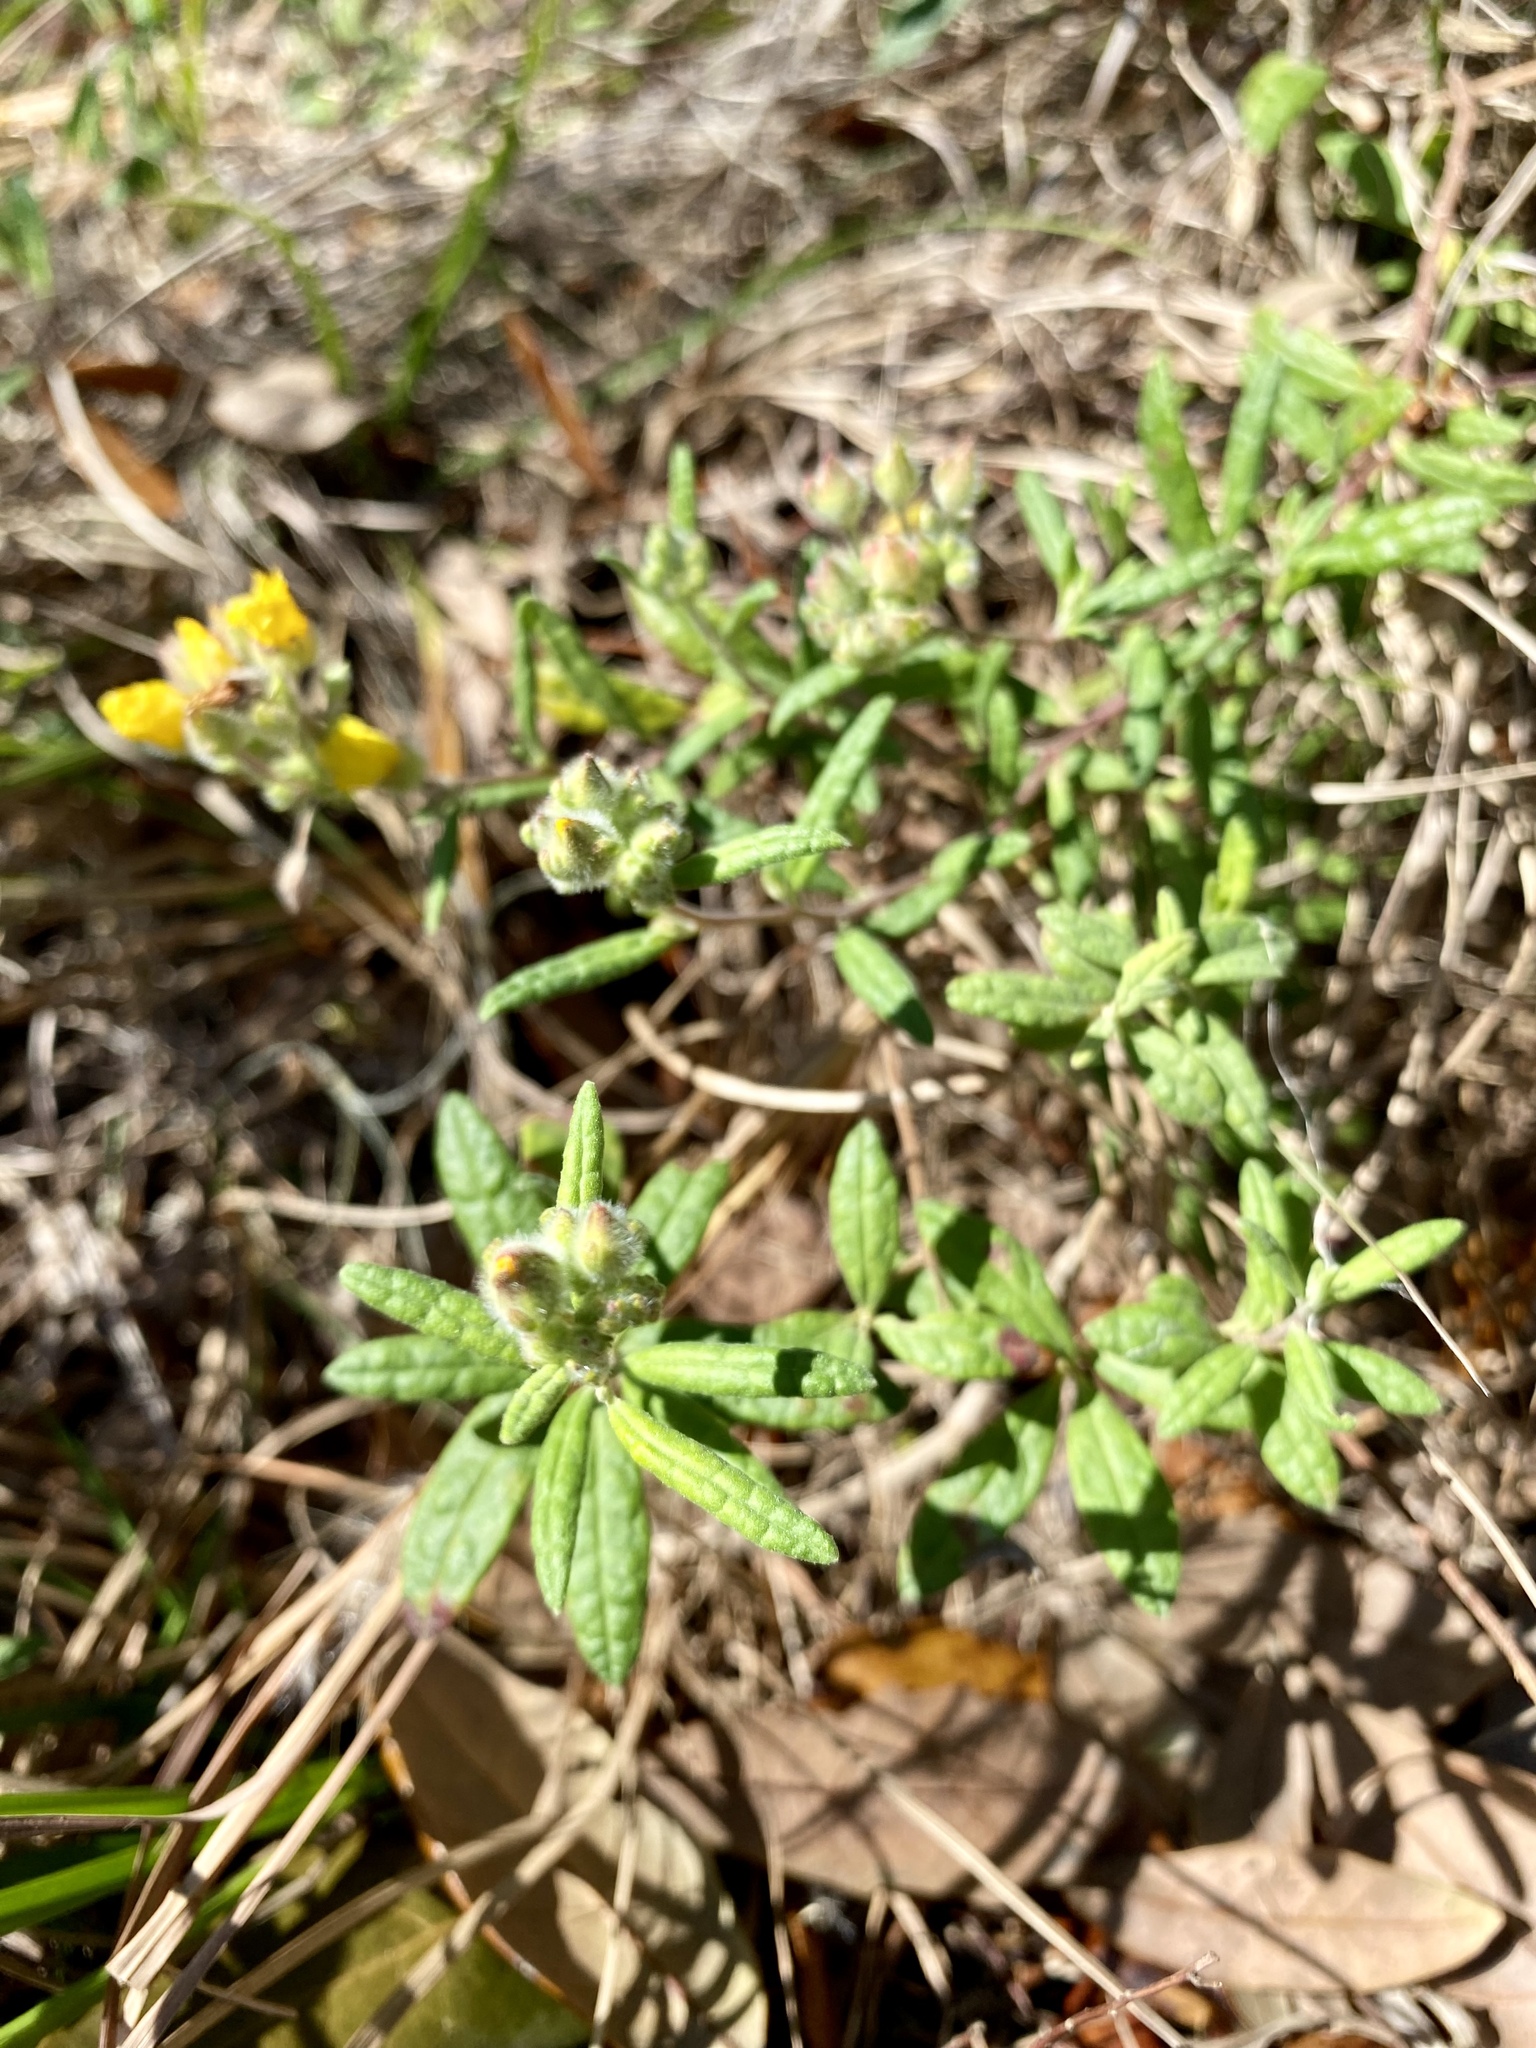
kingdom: Plantae
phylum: Tracheophyta
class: Magnoliopsida
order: Malvales
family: Cistaceae
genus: Crocanthemum
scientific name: Crocanthemum corymbosum
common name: Pinebarren sun-rose
